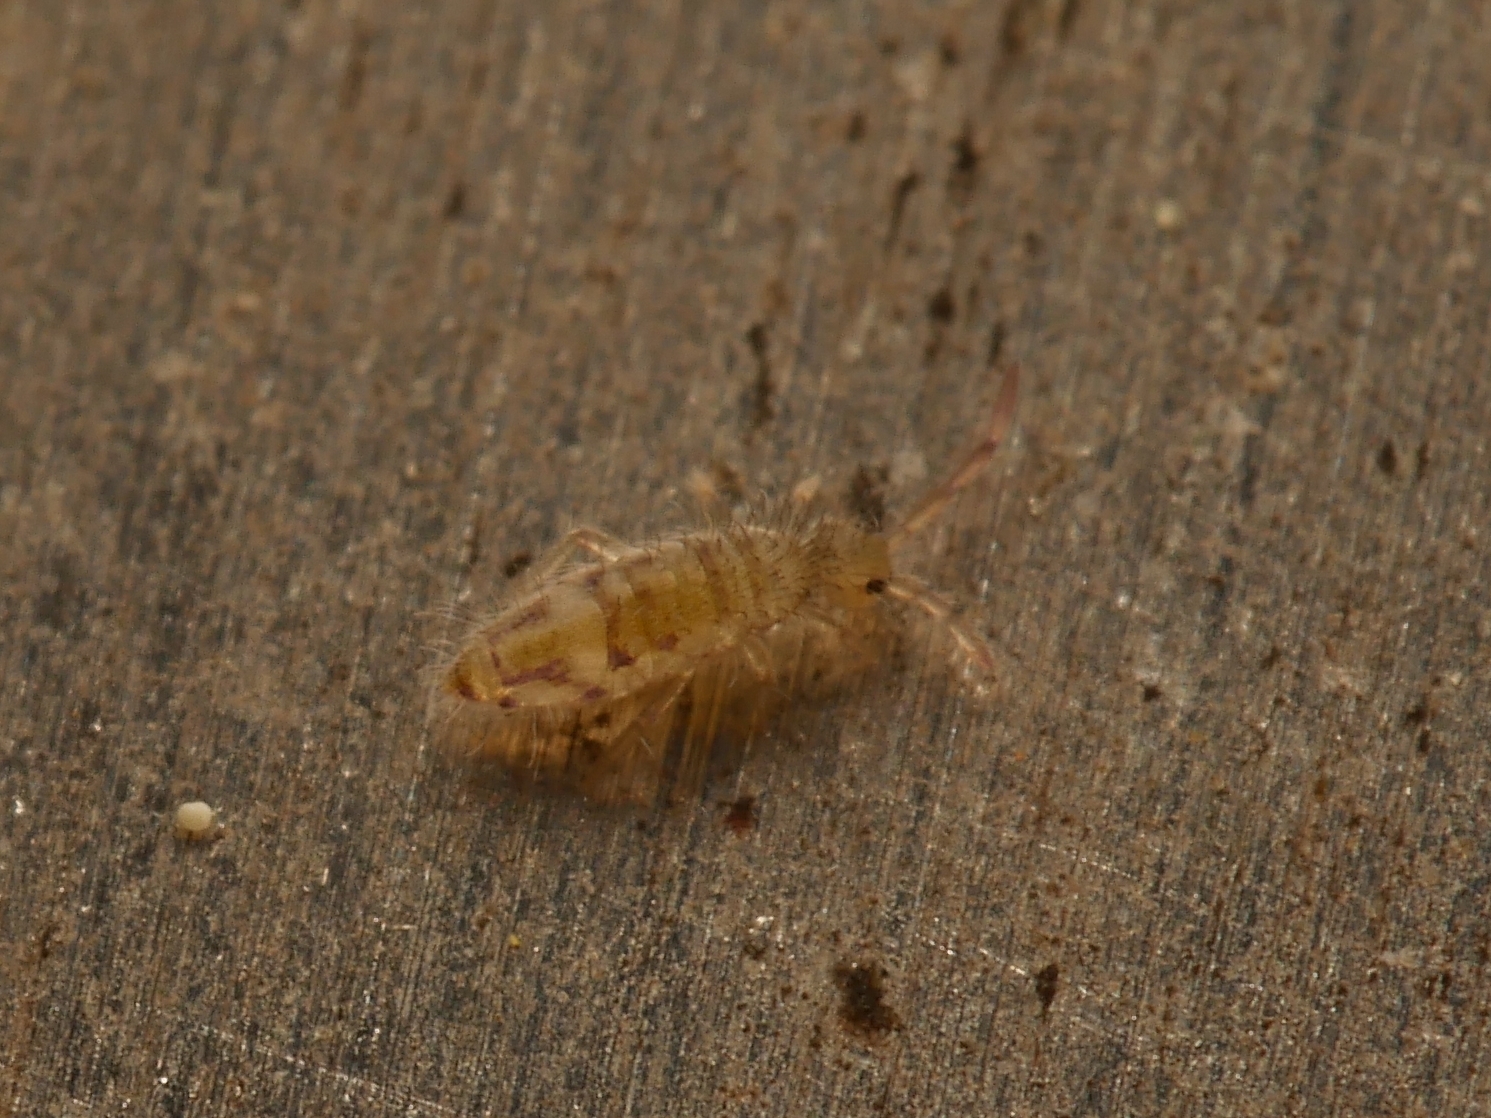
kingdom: Animalia
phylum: Arthropoda
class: Collembola
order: Entomobryomorpha
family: Entomobryidae
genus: Entomobrya
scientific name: Entomobrya nivalis
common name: Cosmopolitan springtail
